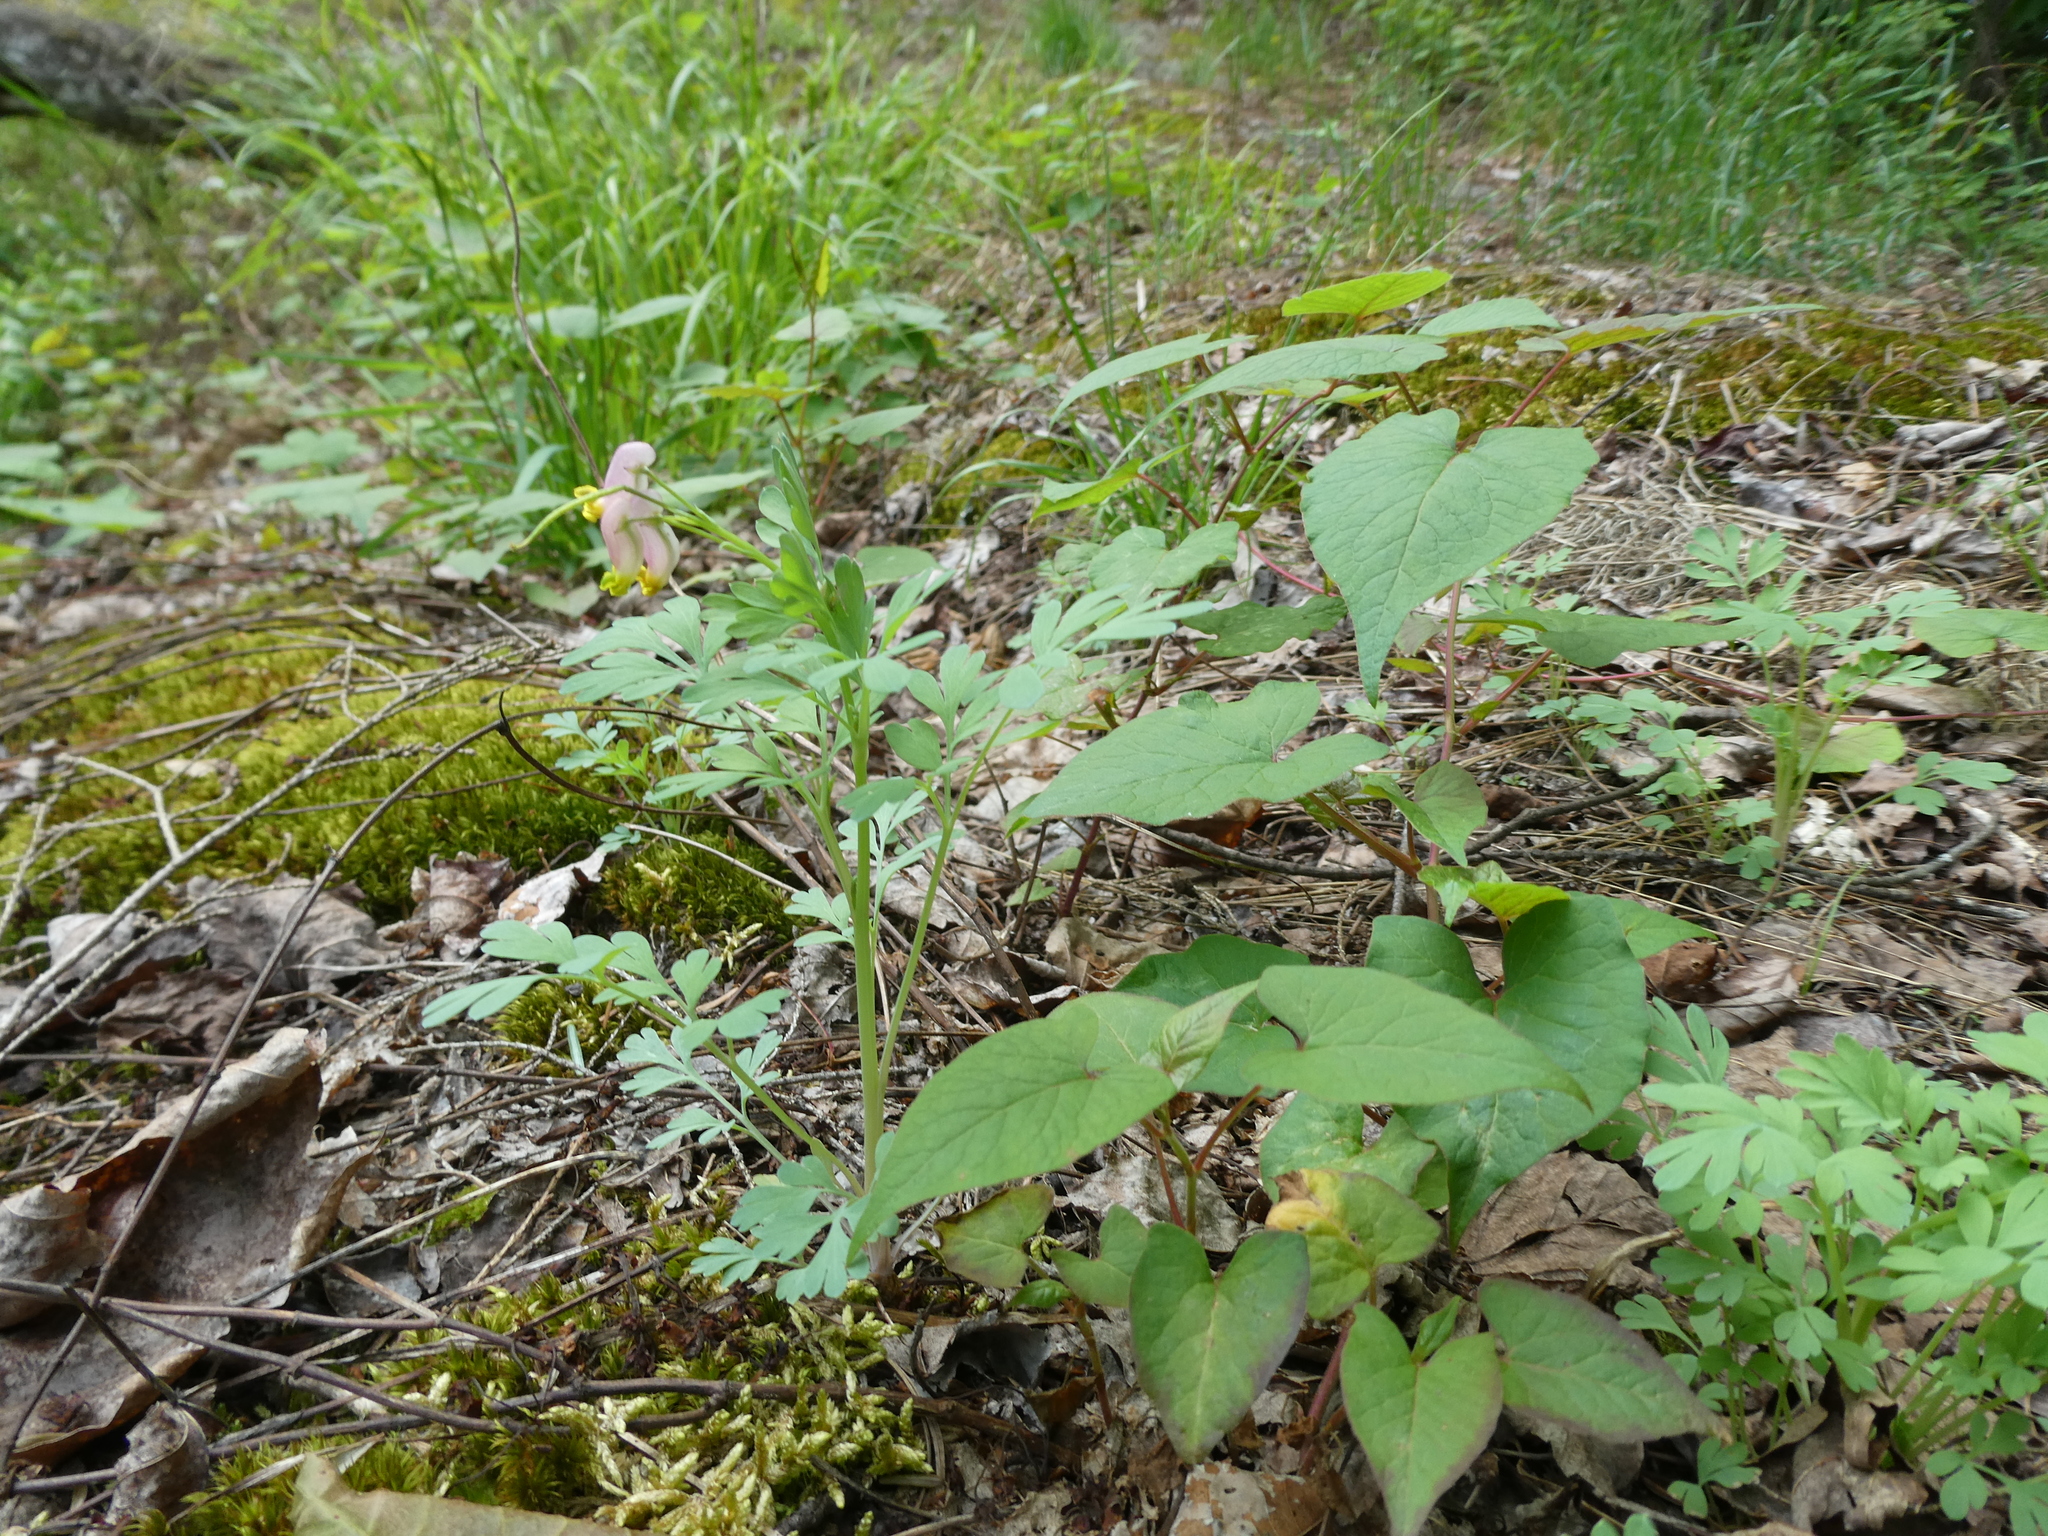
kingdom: Plantae
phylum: Tracheophyta
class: Magnoliopsida
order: Ranunculales
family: Papaveraceae
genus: Capnoides
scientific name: Capnoides sempervirens
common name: Rock harlequin
